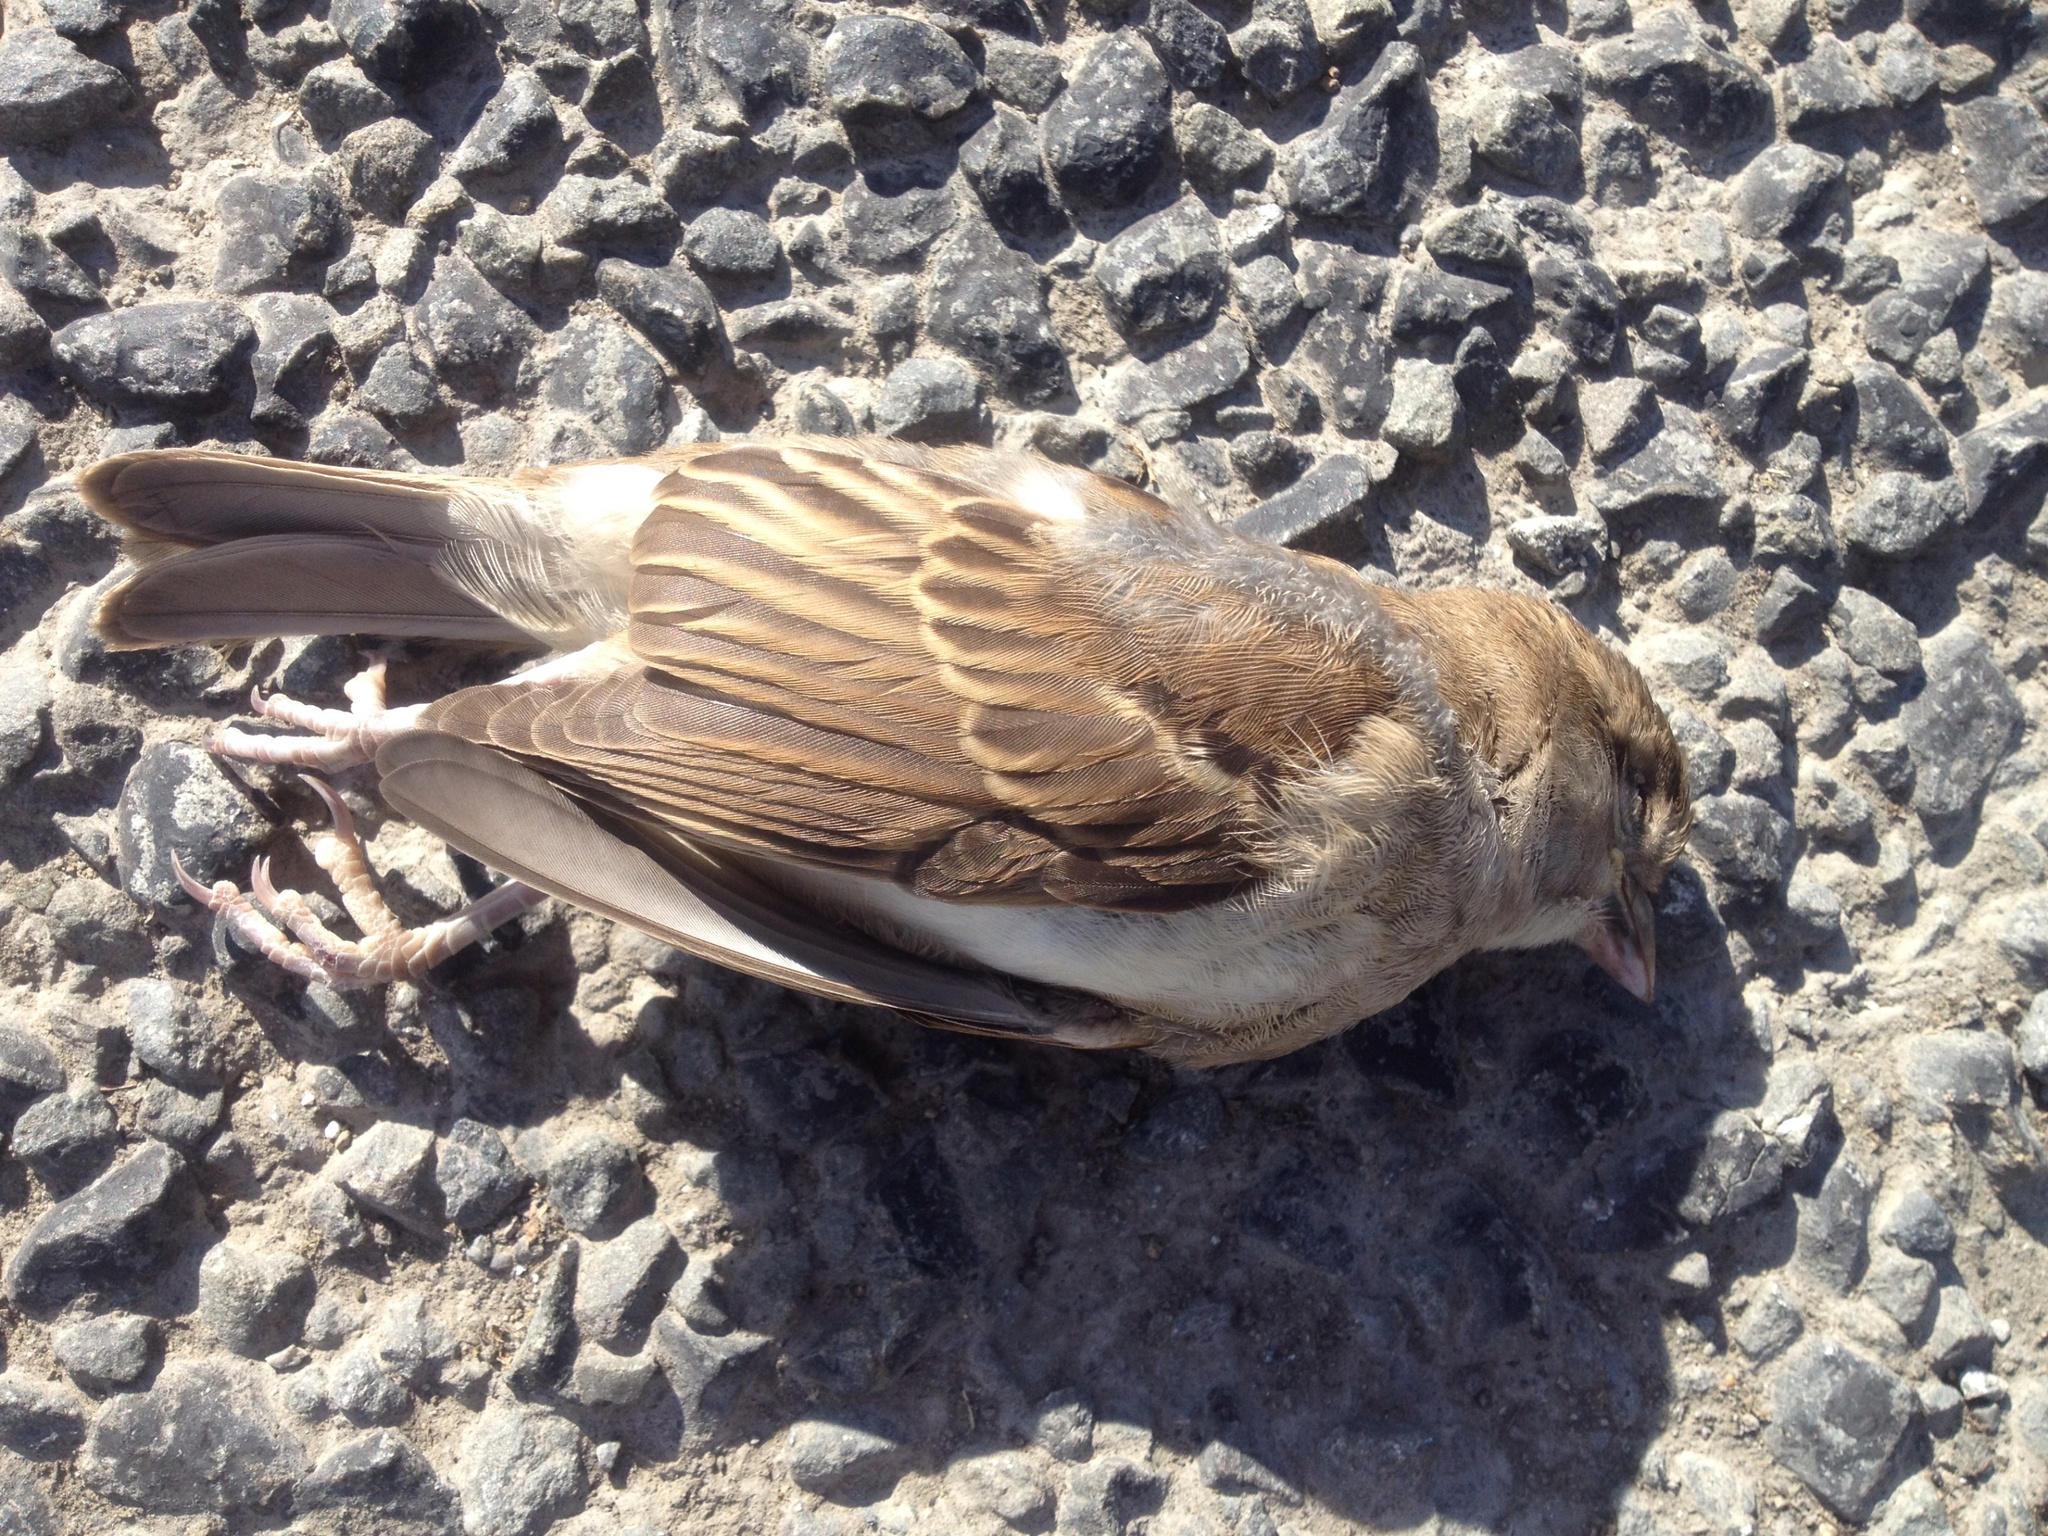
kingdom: Animalia
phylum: Chordata
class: Aves
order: Passeriformes
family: Passeridae
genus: Passer
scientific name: Passer domesticus
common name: House sparrow
